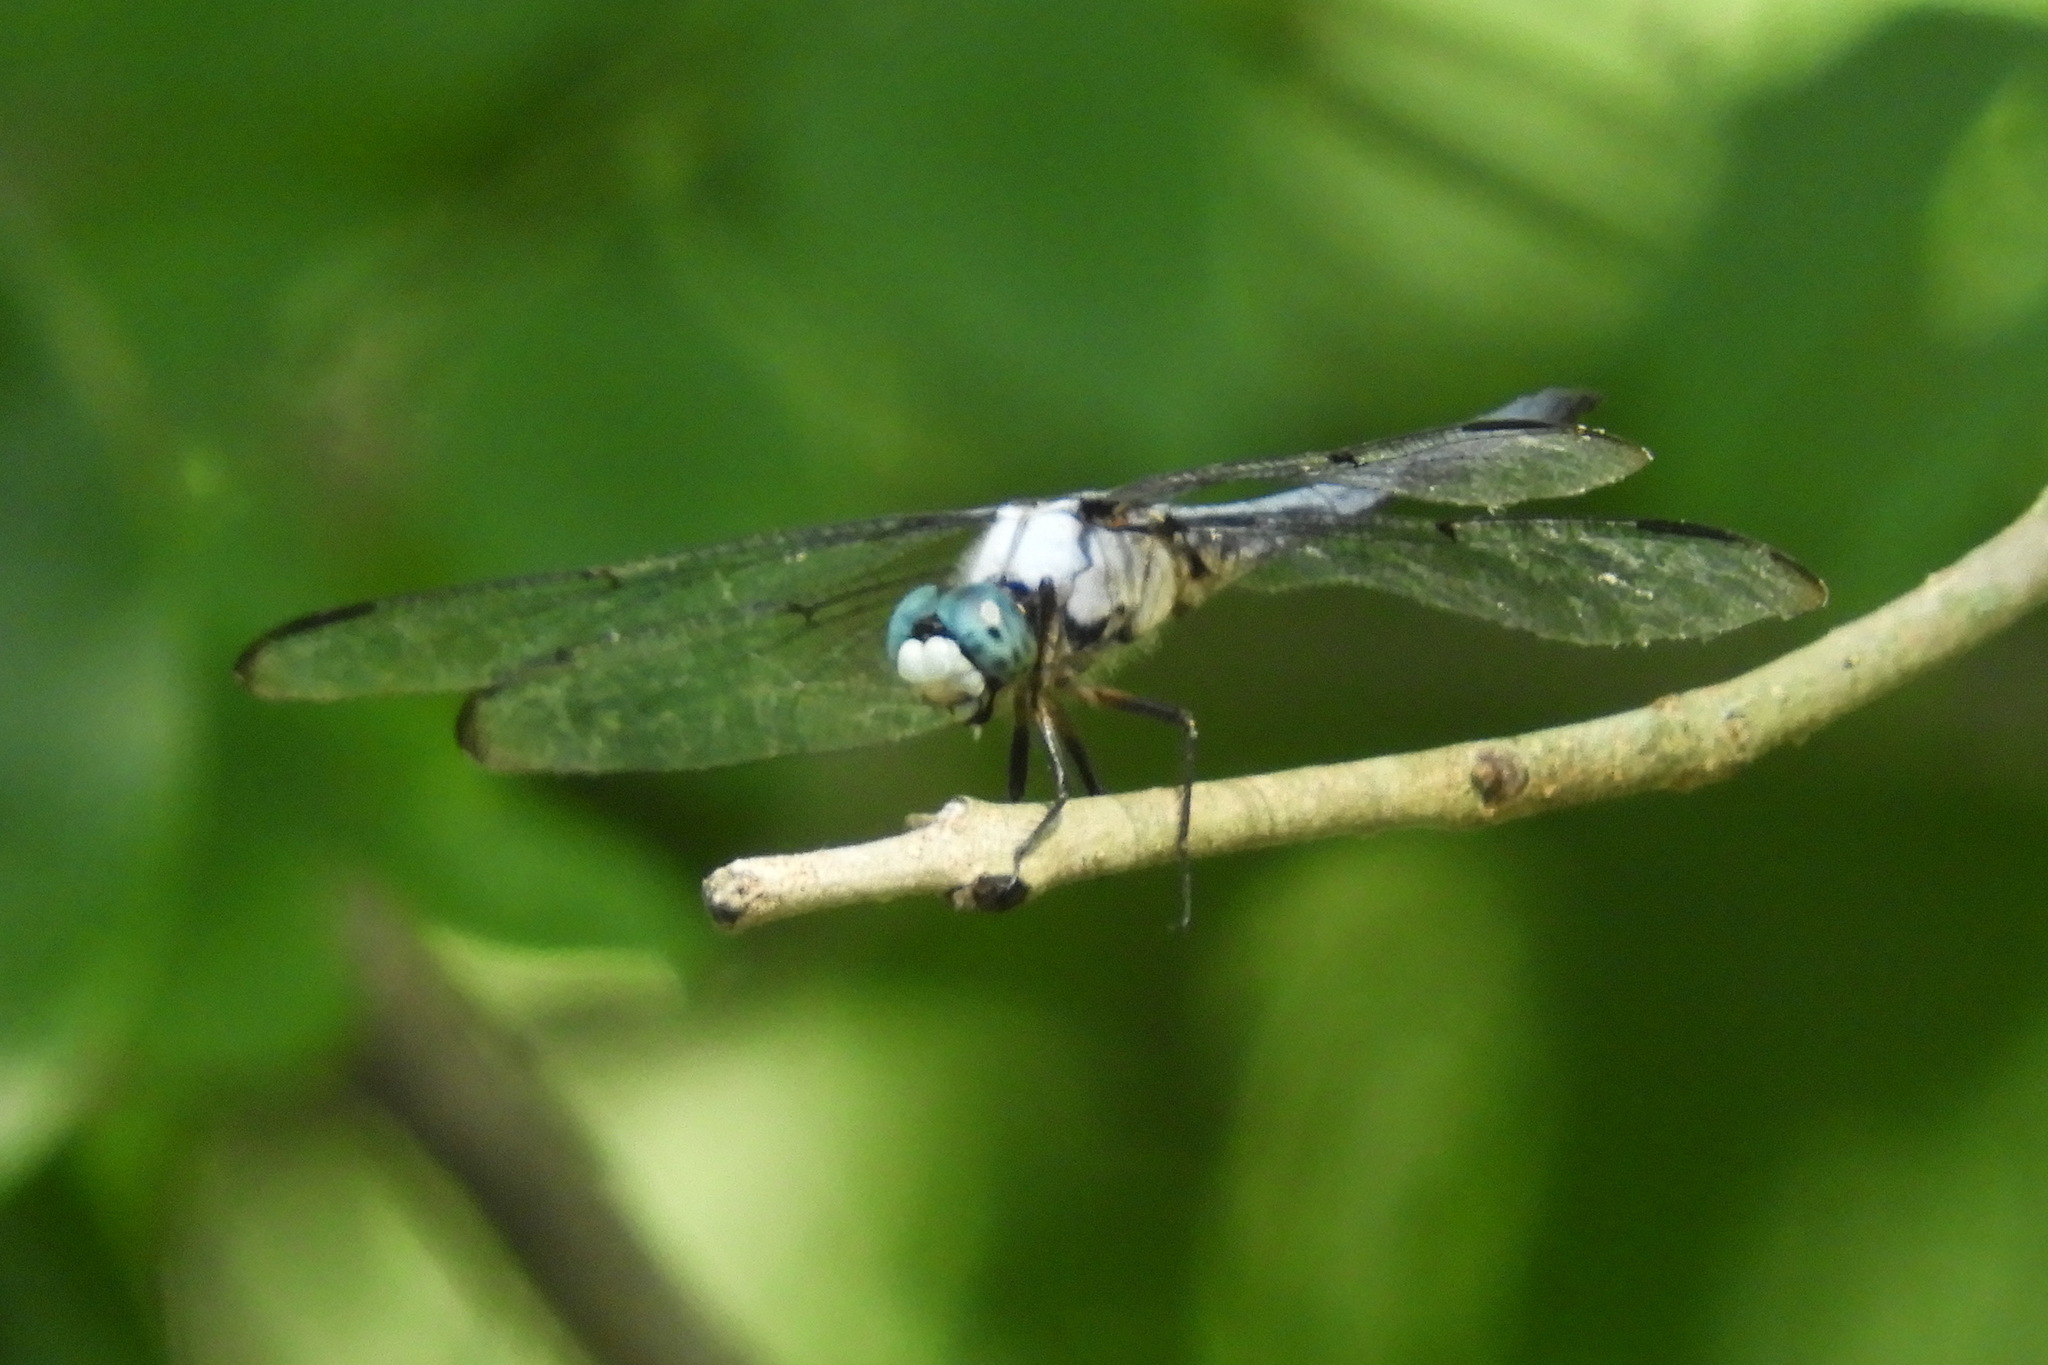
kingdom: Animalia
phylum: Arthropoda
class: Insecta
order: Odonata
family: Libellulidae
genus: Libellula
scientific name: Libellula vibrans
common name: Great blue skimmer
